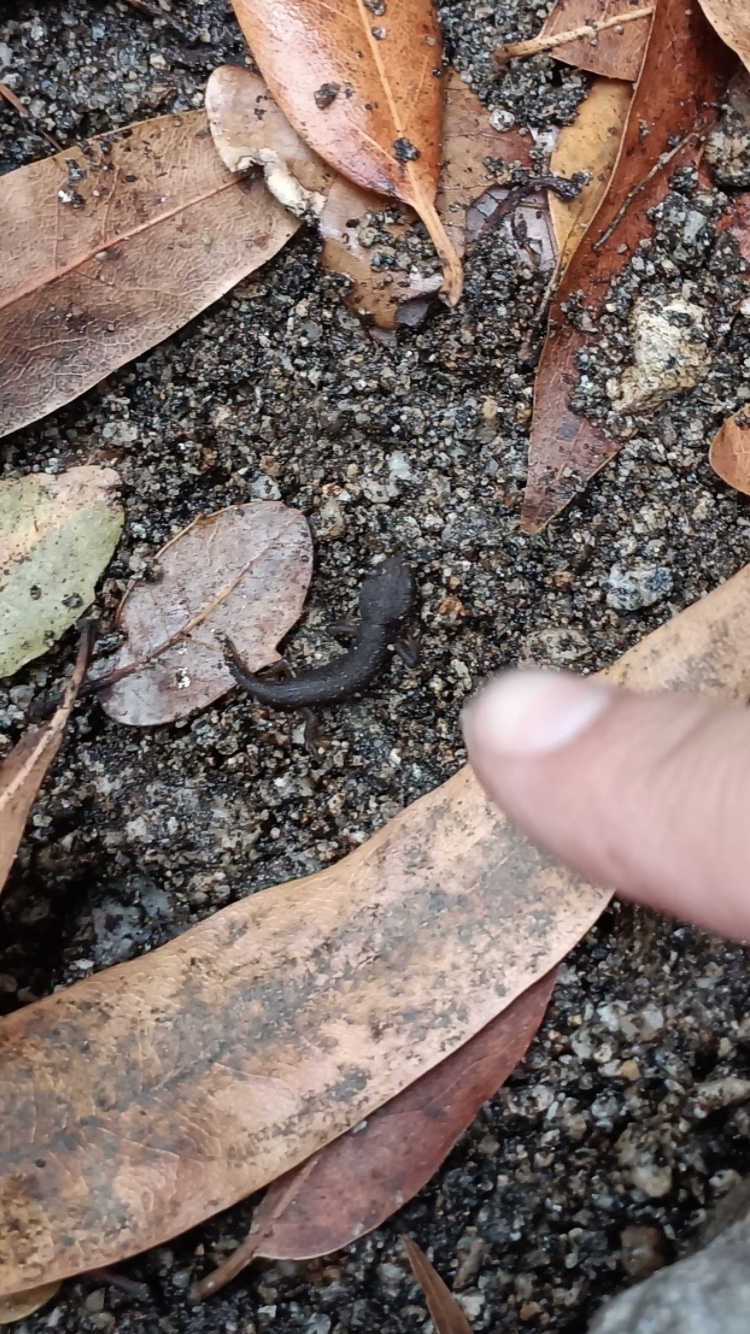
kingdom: Animalia
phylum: Chordata
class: Amphibia
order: Caudata
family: Salamandridae
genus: Taricha
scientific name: Taricha torosa
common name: California newt
